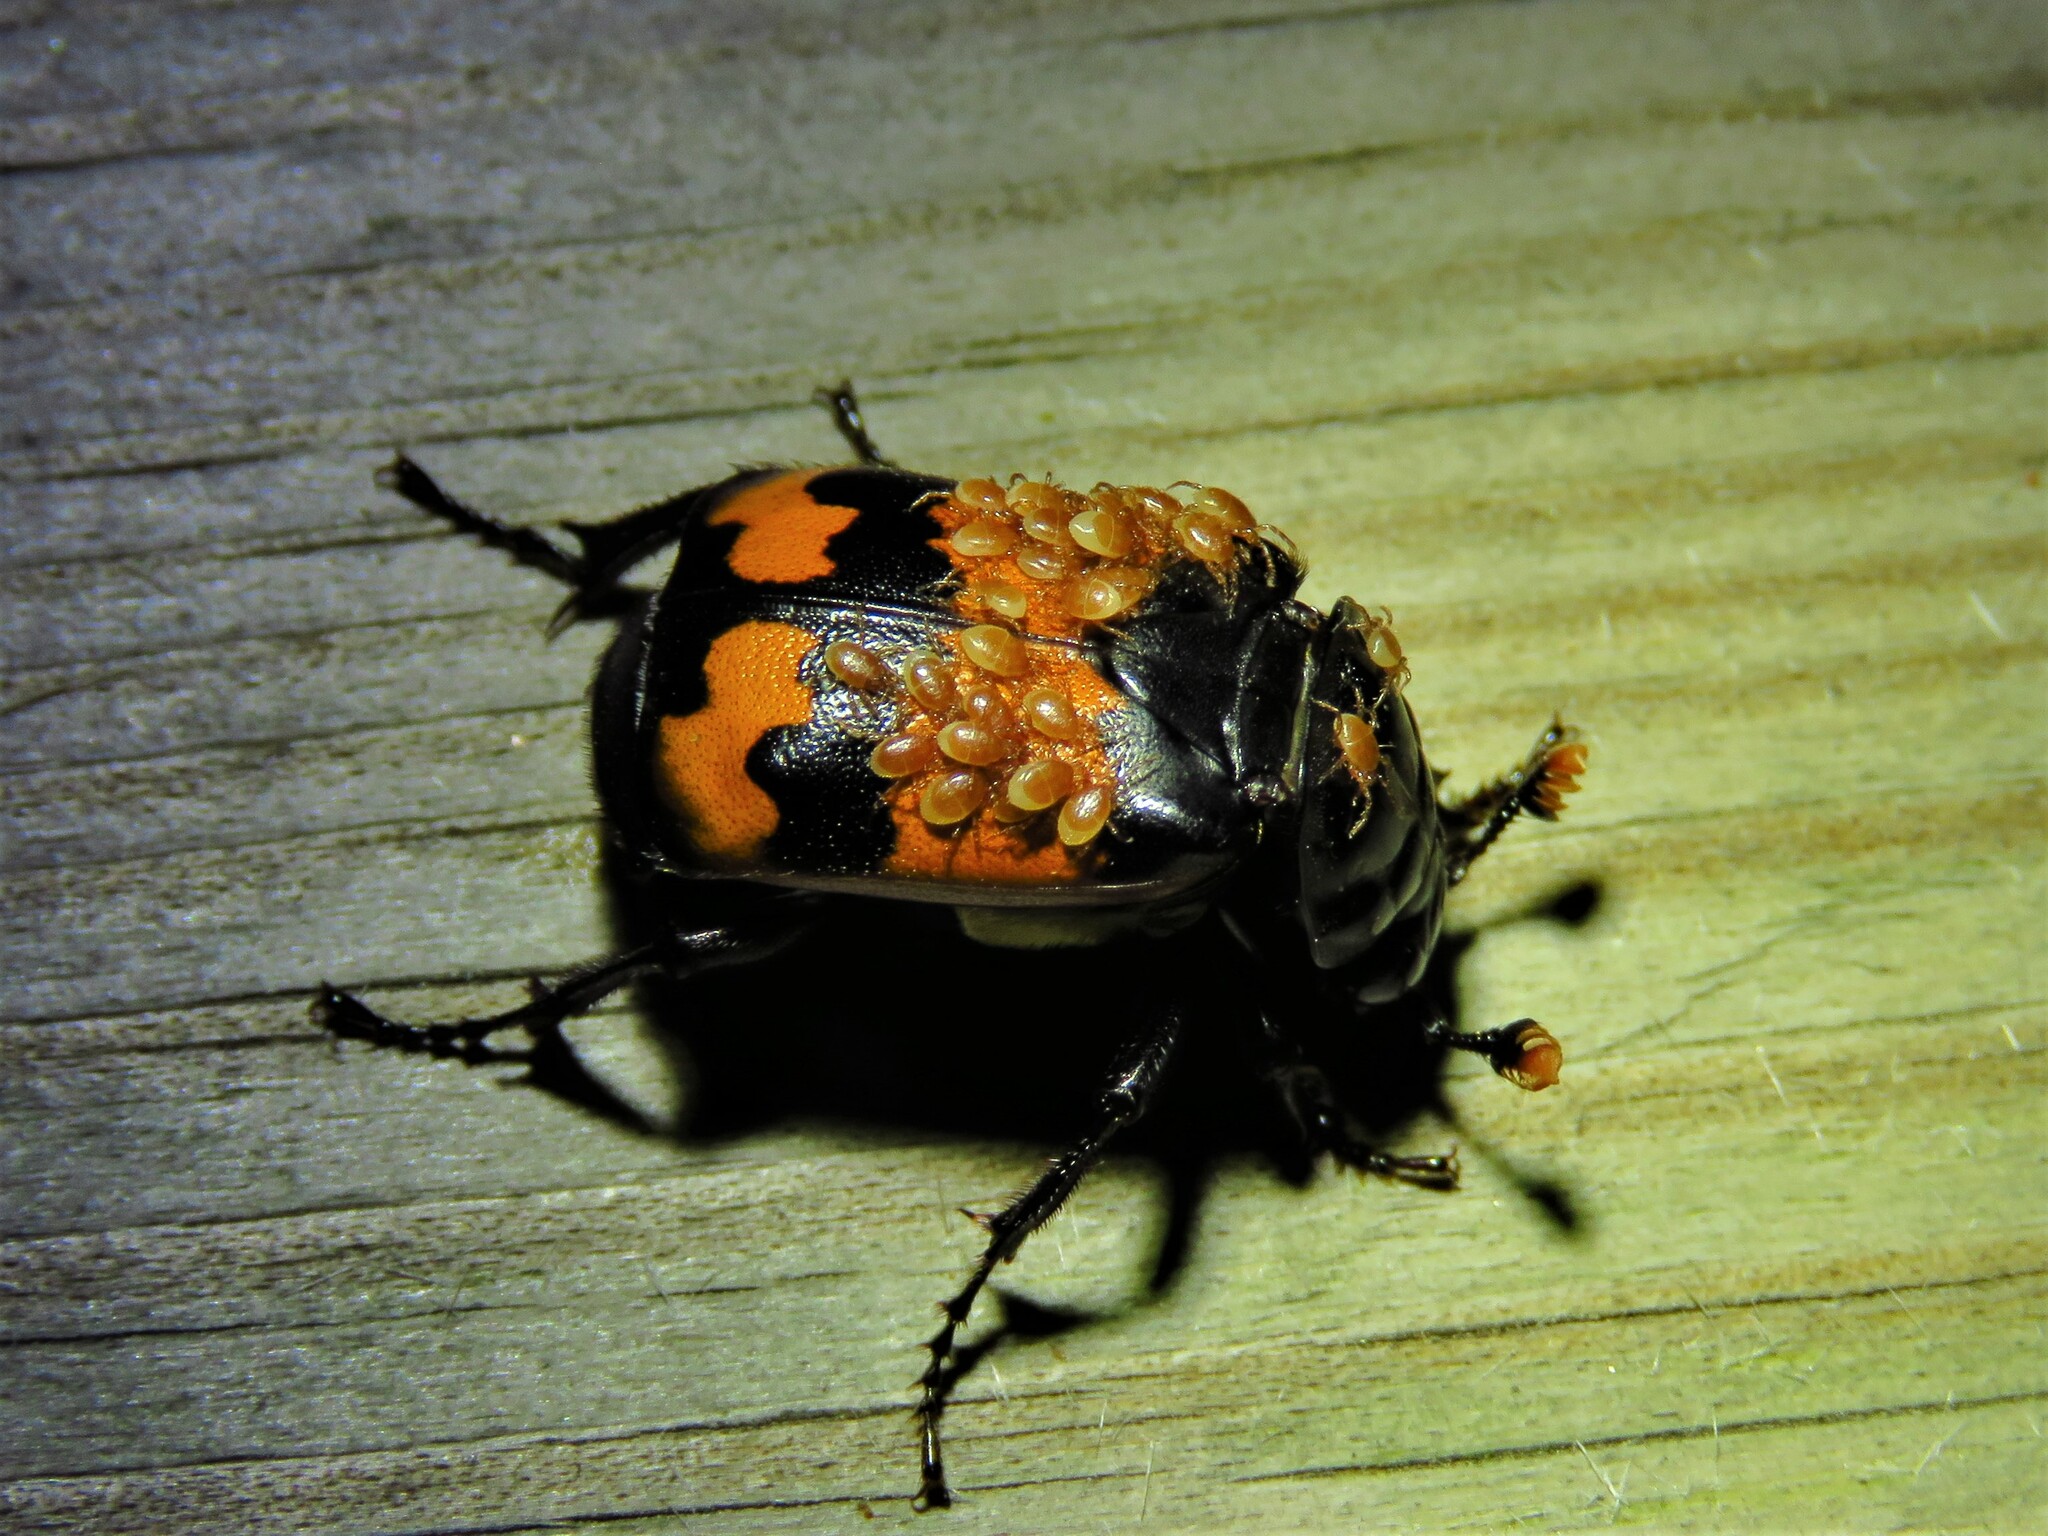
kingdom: Animalia
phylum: Arthropoda
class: Insecta
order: Coleoptera
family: Staphylinidae
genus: Nicrophorus
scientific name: Nicrophorus investigator
